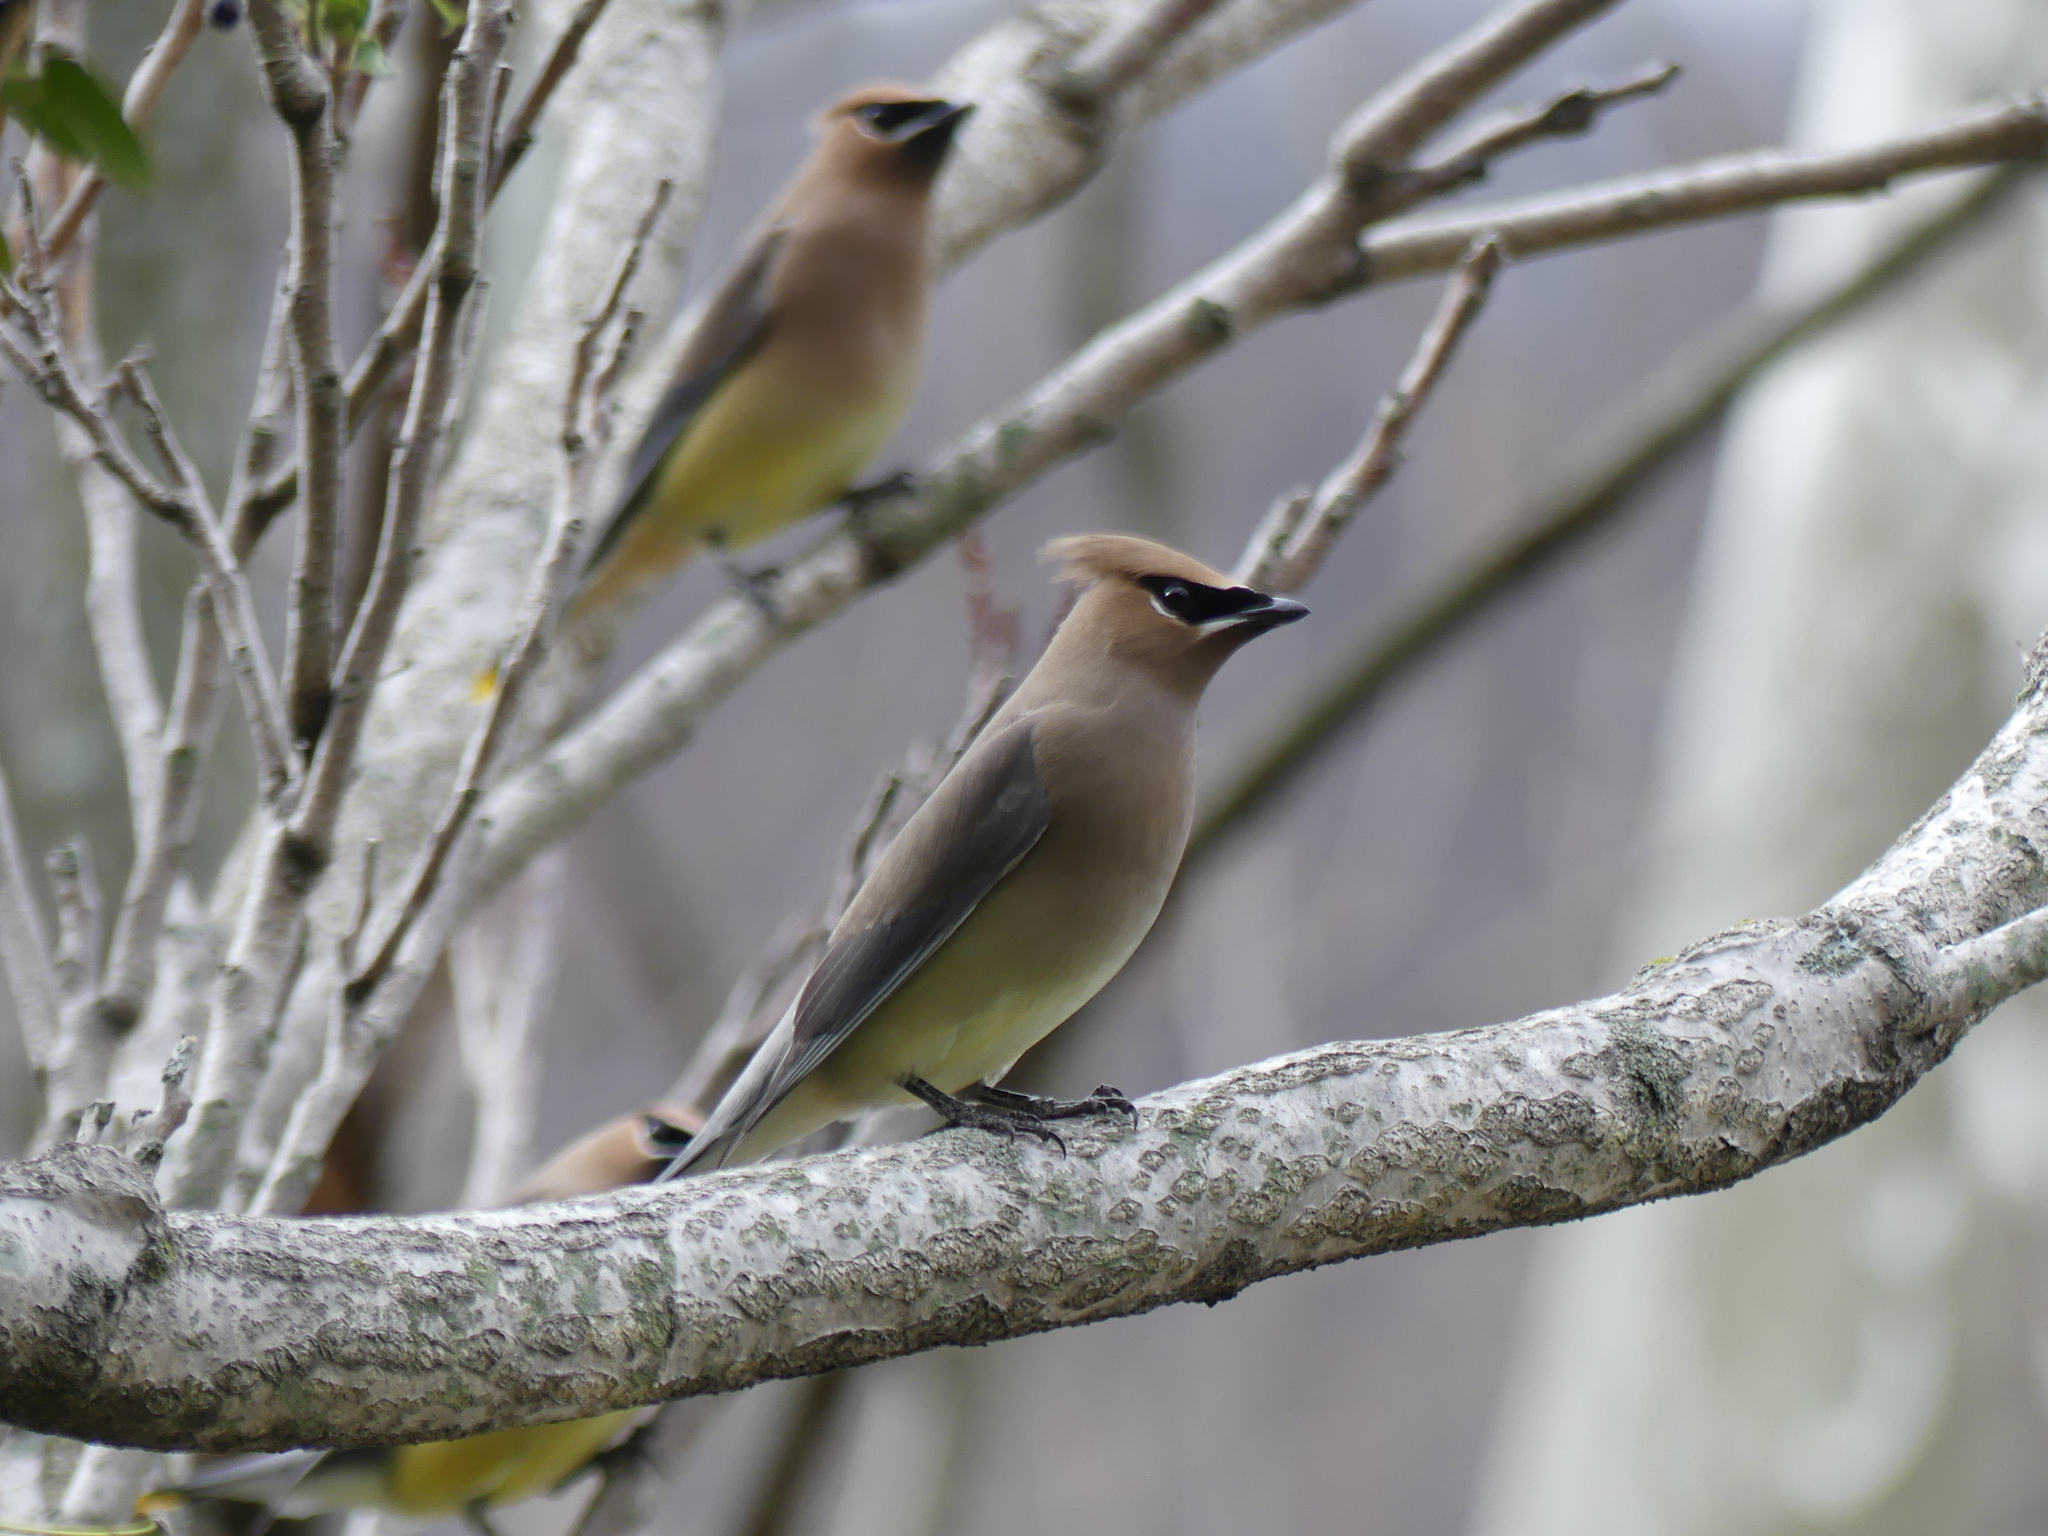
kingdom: Animalia
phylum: Chordata
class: Aves
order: Passeriformes
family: Bombycillidae
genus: Bombycilla
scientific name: Bombycilla cedrorum
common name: Cedar waxwing
